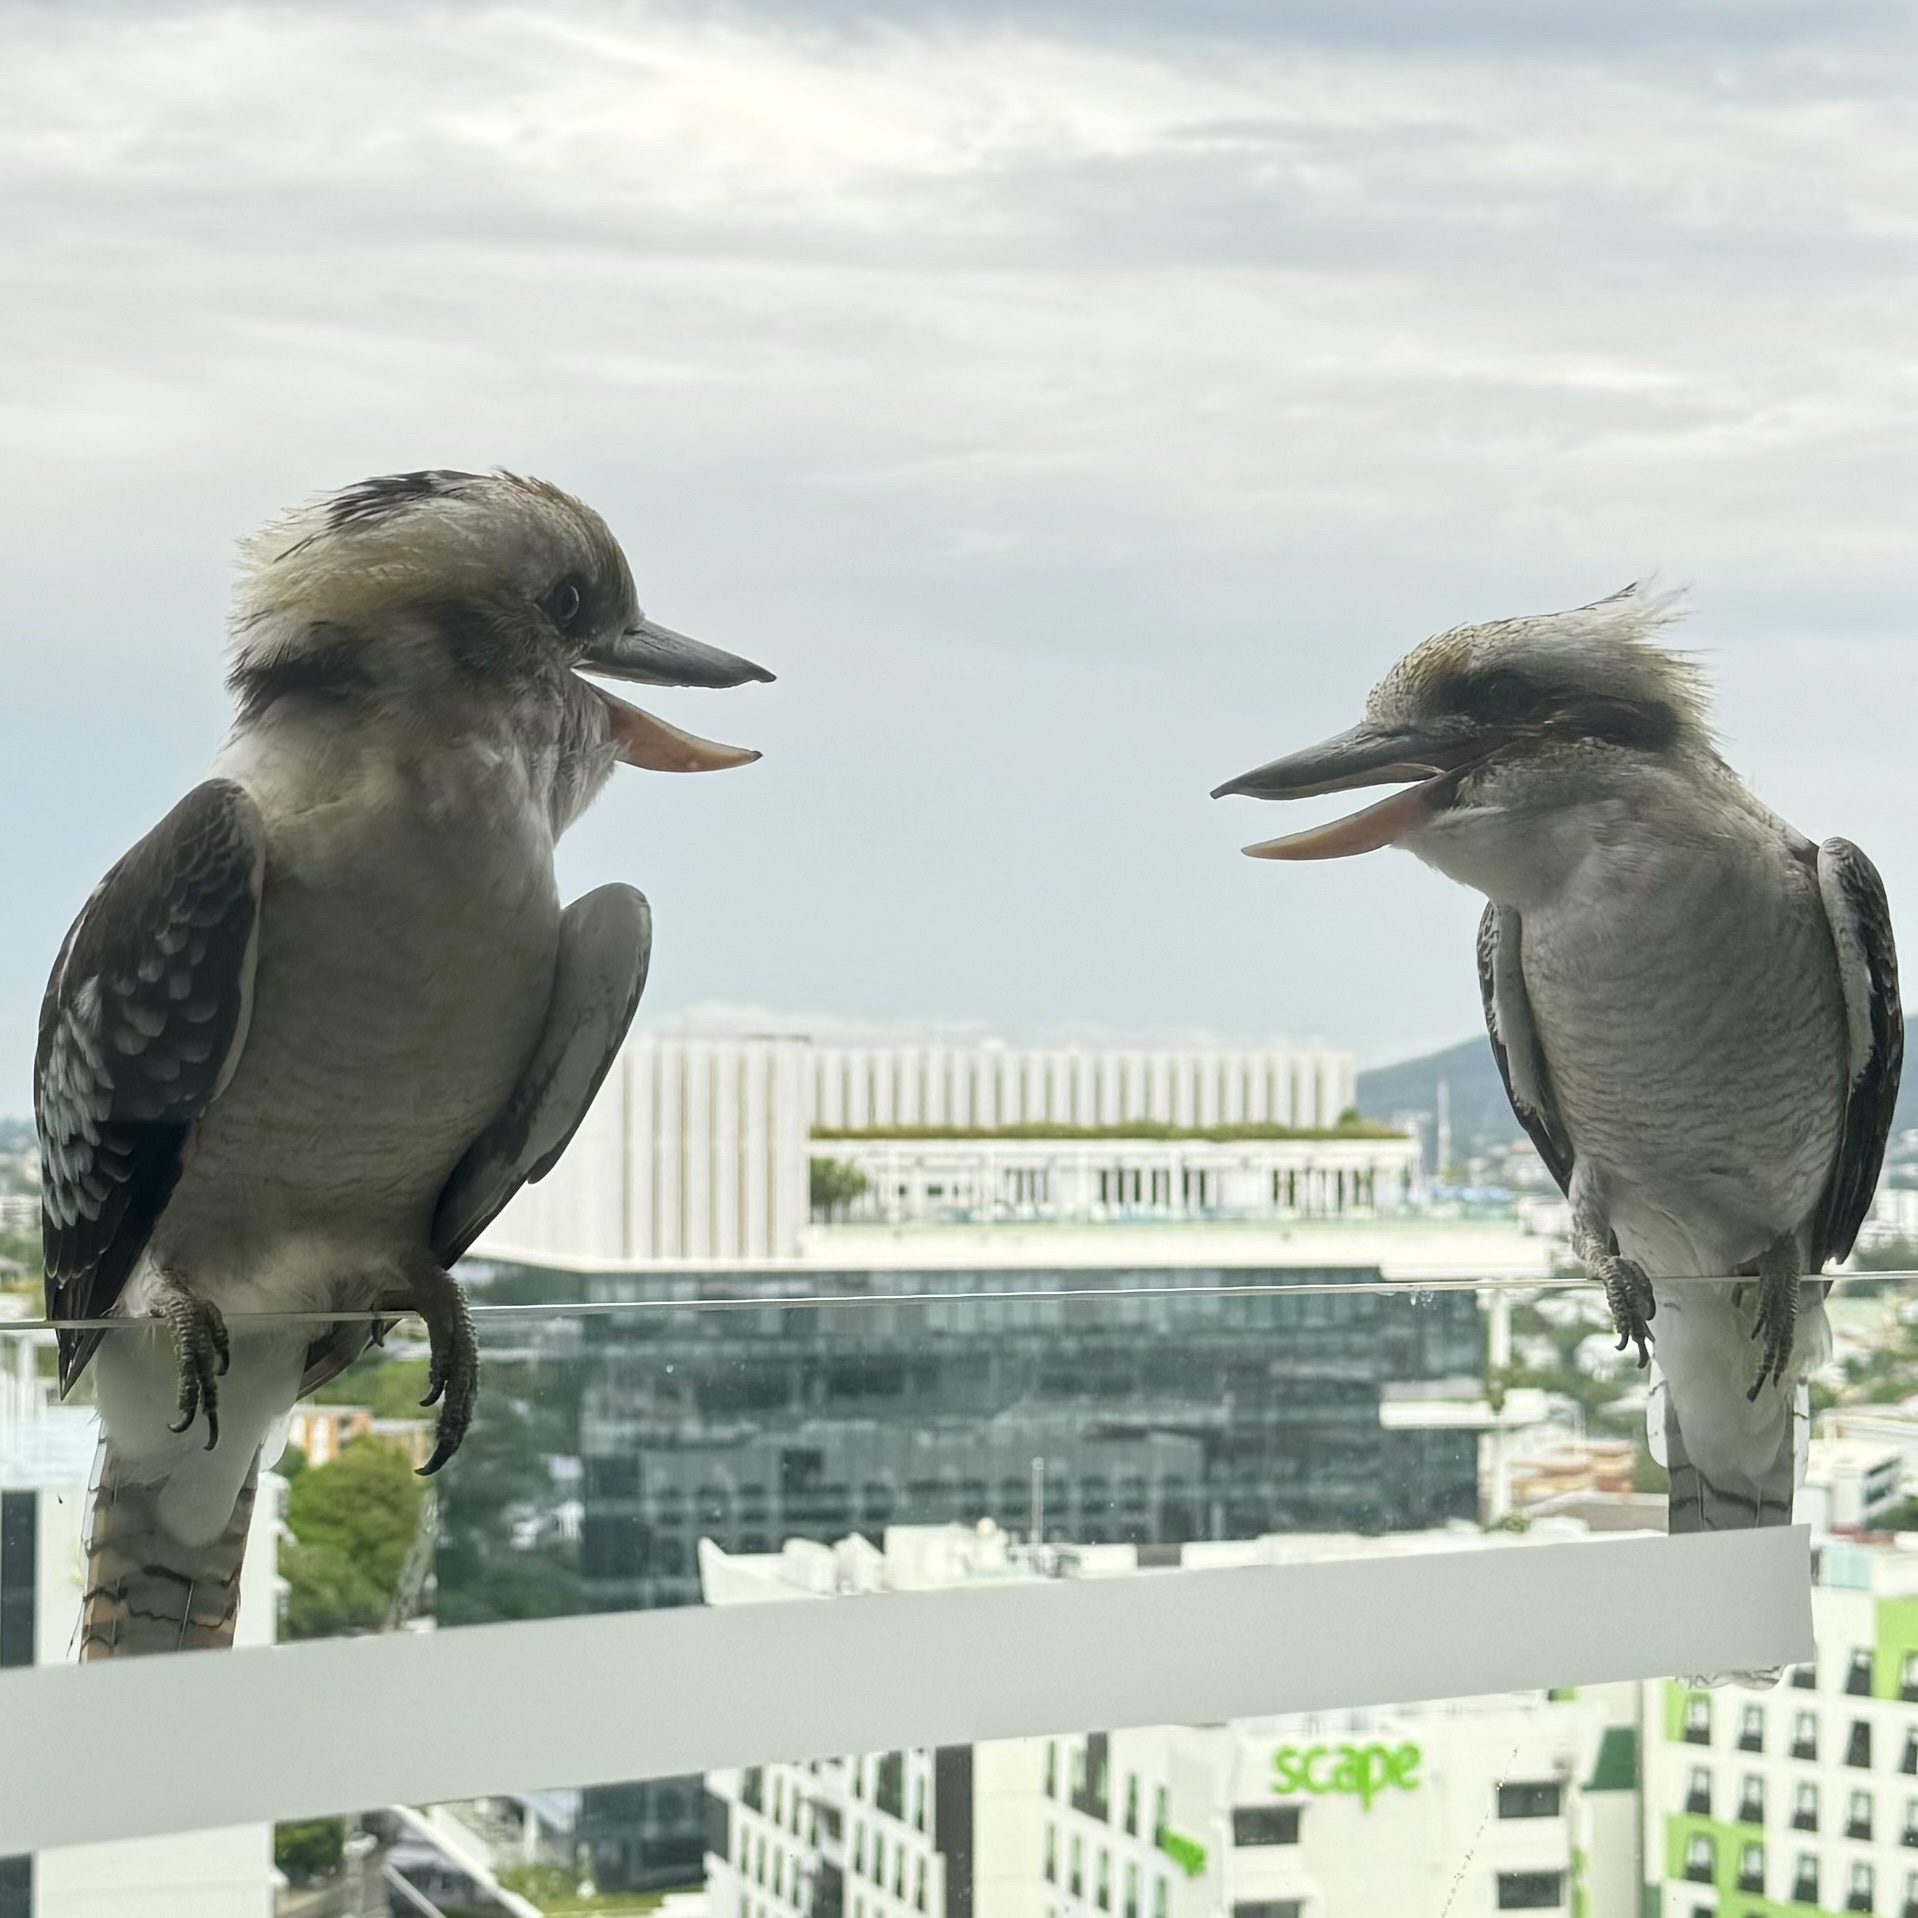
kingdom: Animalia
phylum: Chordata
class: Aves
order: Coraciiformes
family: Alcedinidae
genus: Dacelo
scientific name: Dacelo novaeguineae
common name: Laughing kookaburra
